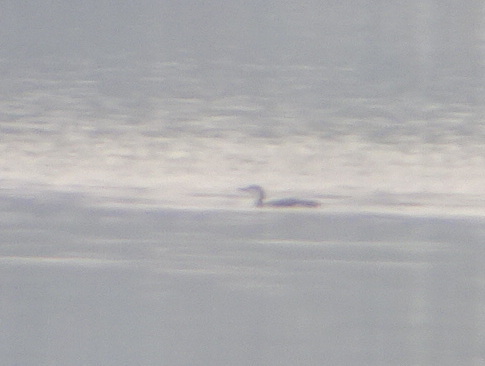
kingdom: Animalia
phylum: Chordata
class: Aves
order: Gaviiformes
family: Gaviidae
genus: Gavia
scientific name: Gavia stellata
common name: Red-throated loon
